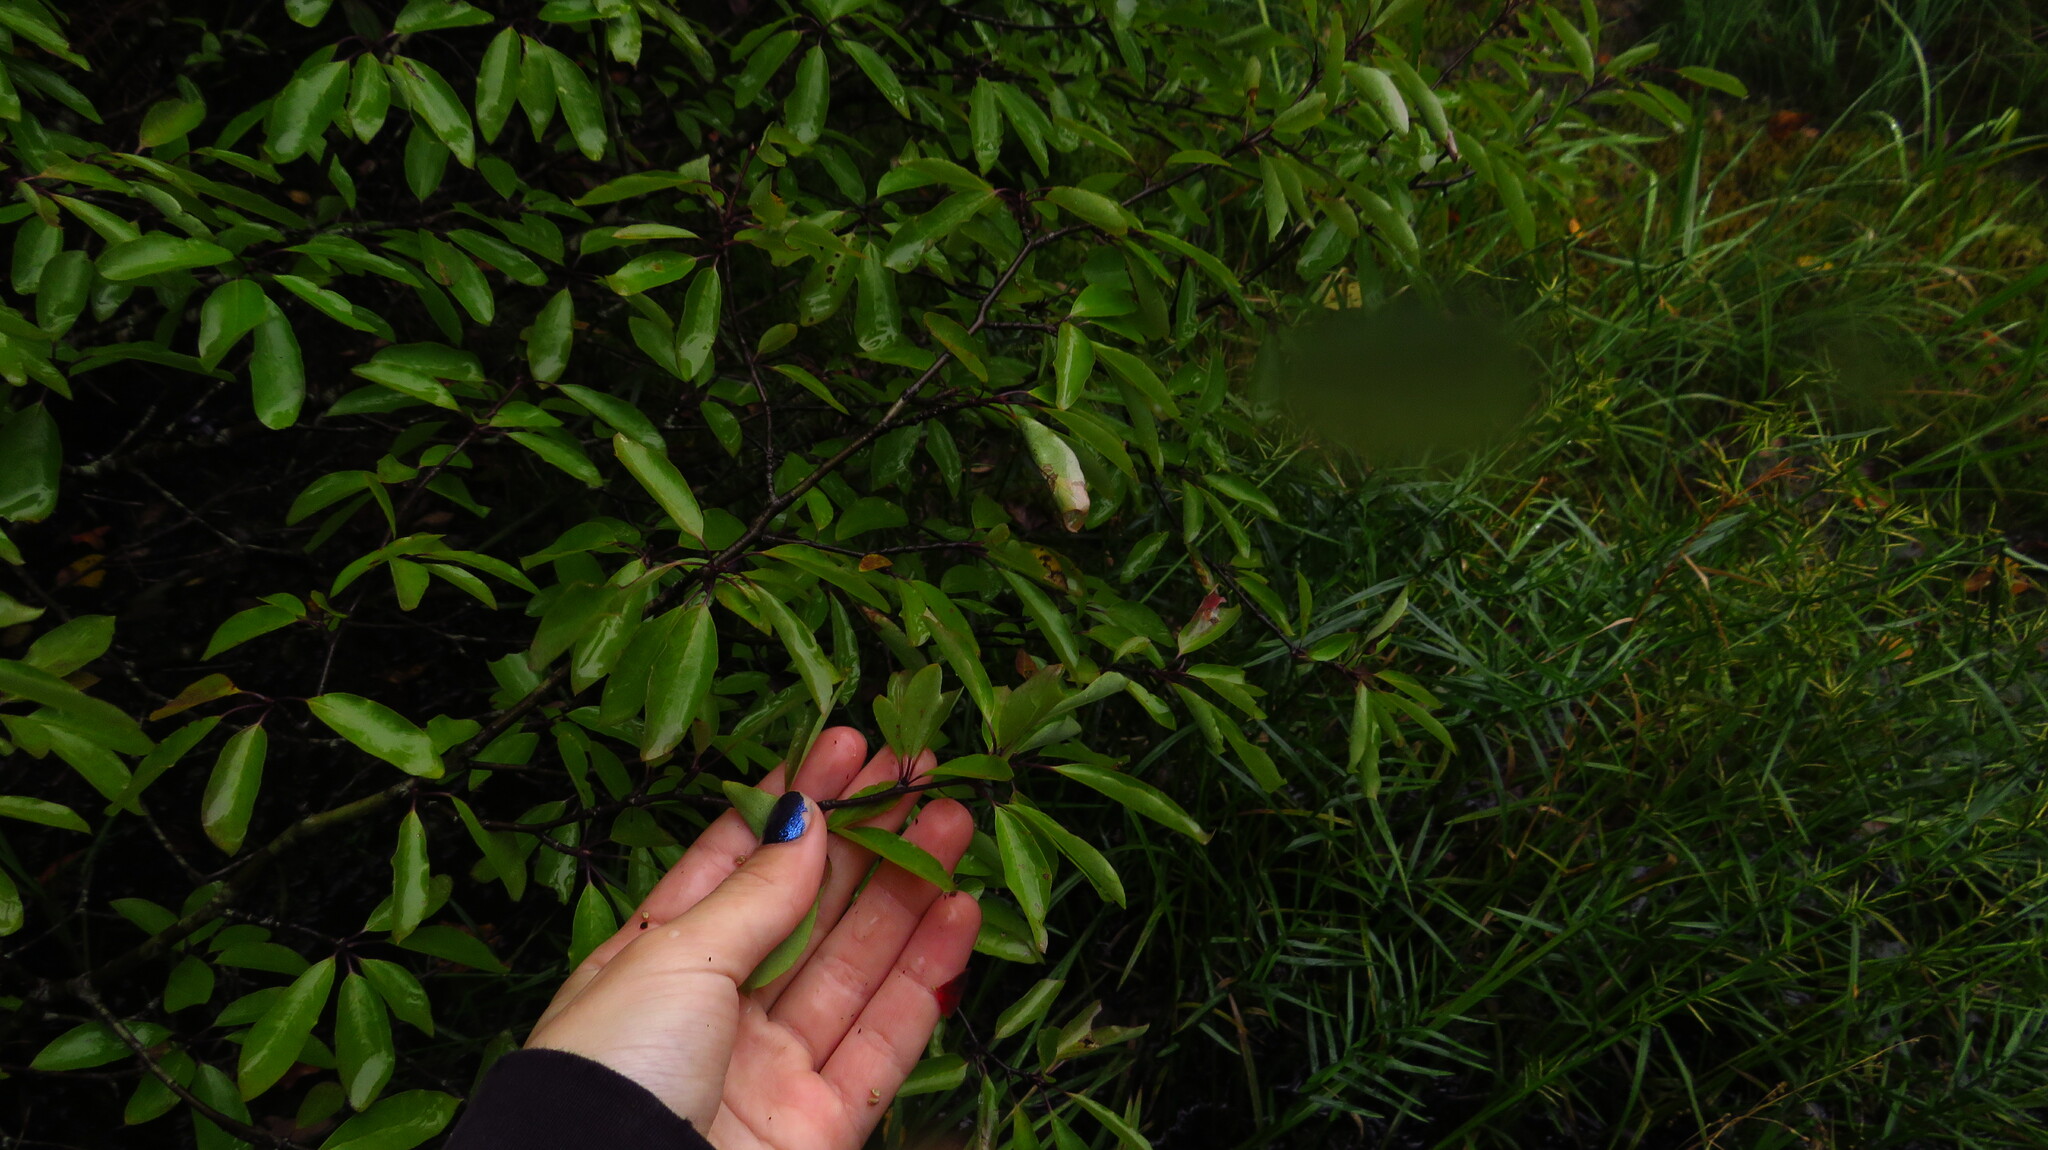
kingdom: Plantae
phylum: Tracheophyta
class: Magnoliopsida
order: Aquifoliales
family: Aquifoliaceae
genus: Ilex
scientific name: Ilex mucronata
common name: Catberry
